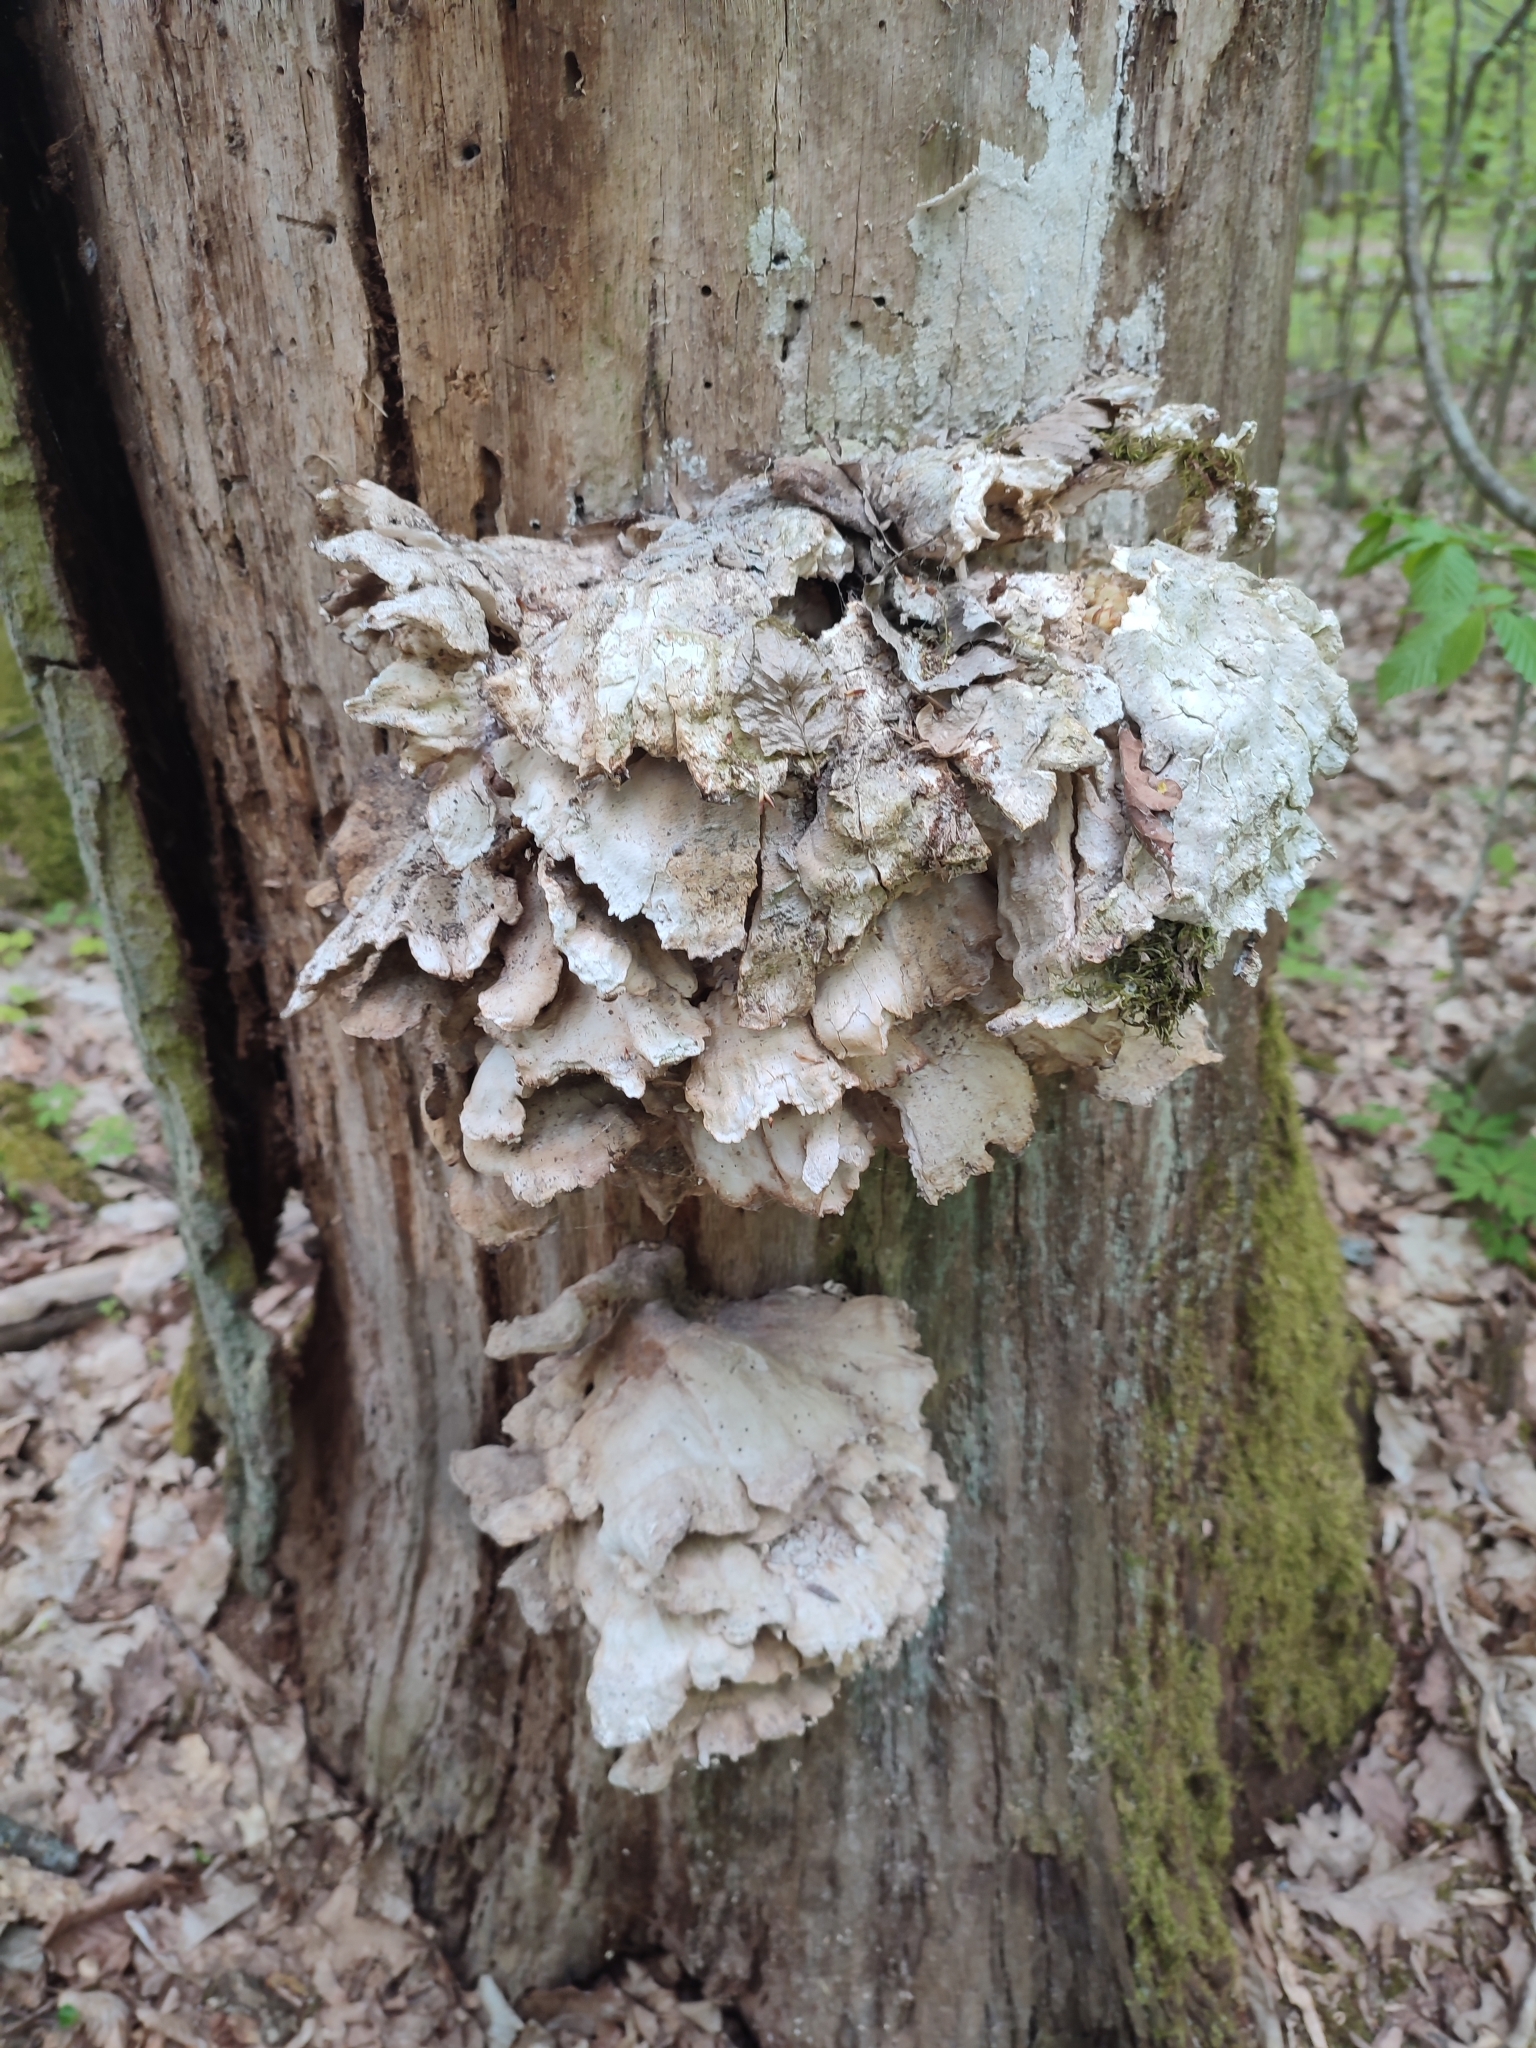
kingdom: Fungi
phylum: Basidiomycota
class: Agaricomycetes
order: Polyporales
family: Laetiporaceae
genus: Laetiporus
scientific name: Laetiporus sulphureus
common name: Chicken of the woods
